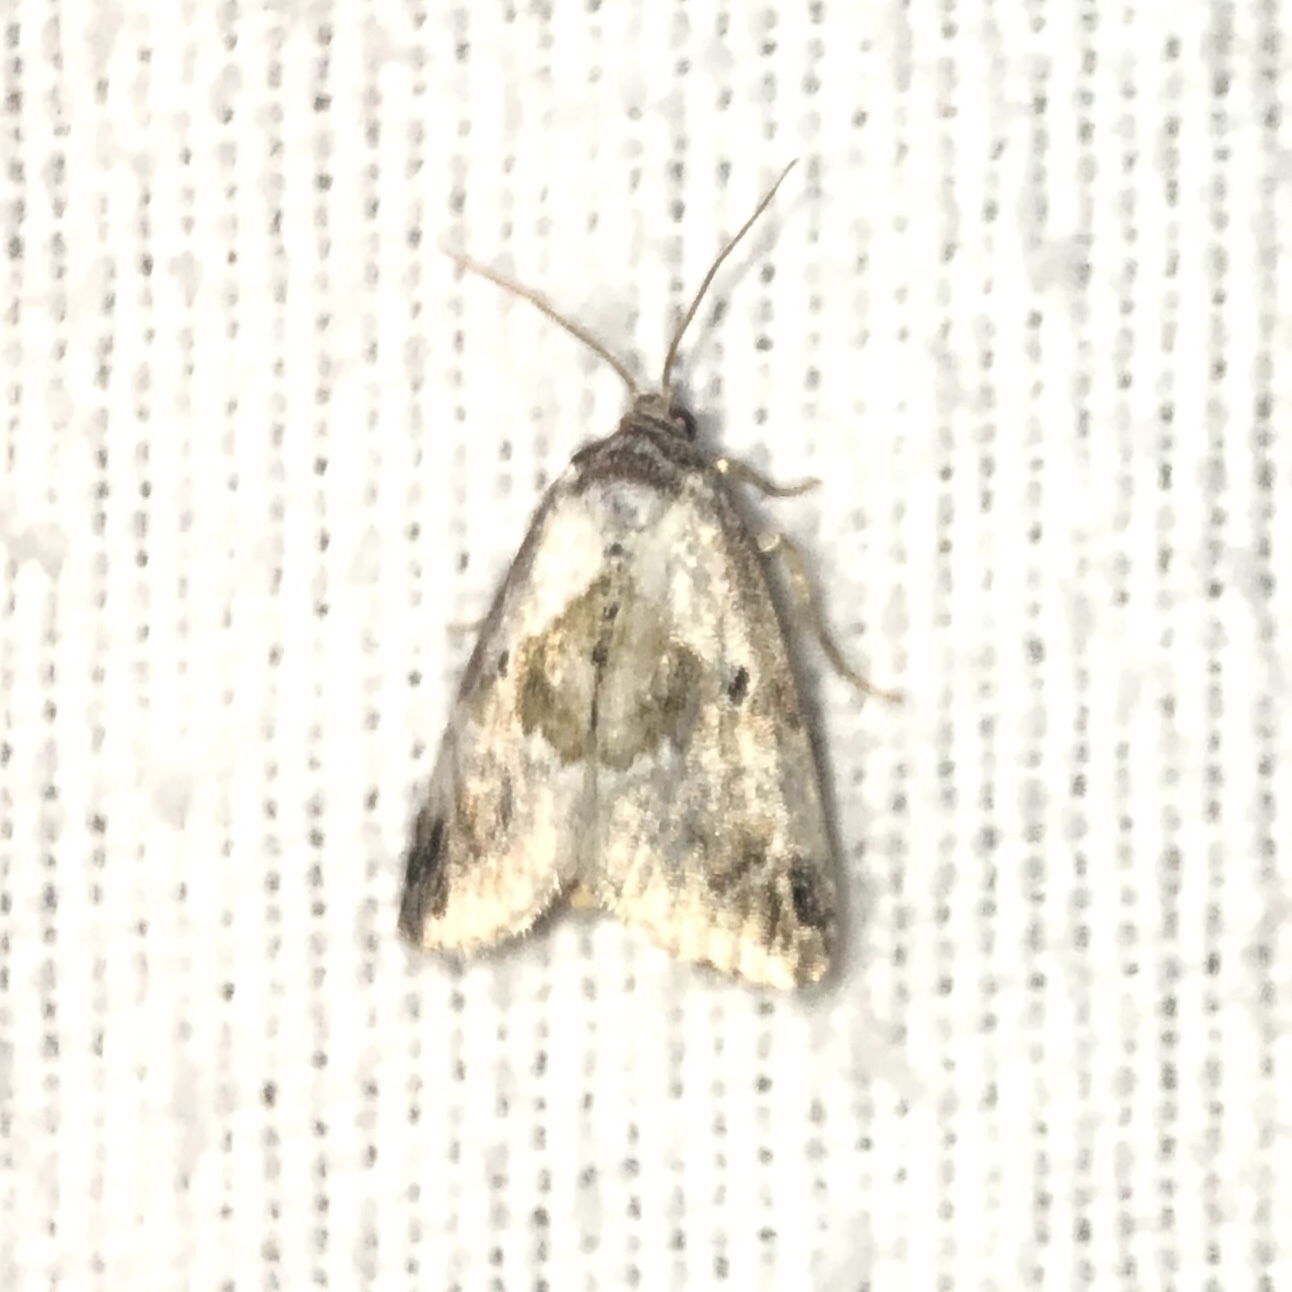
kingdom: Animalia
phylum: Arthropoda
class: Insecta
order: Lepidoptera
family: Noctuidae
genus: Maliattha
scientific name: Maliattha synochitis
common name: Black-dotted glyph
